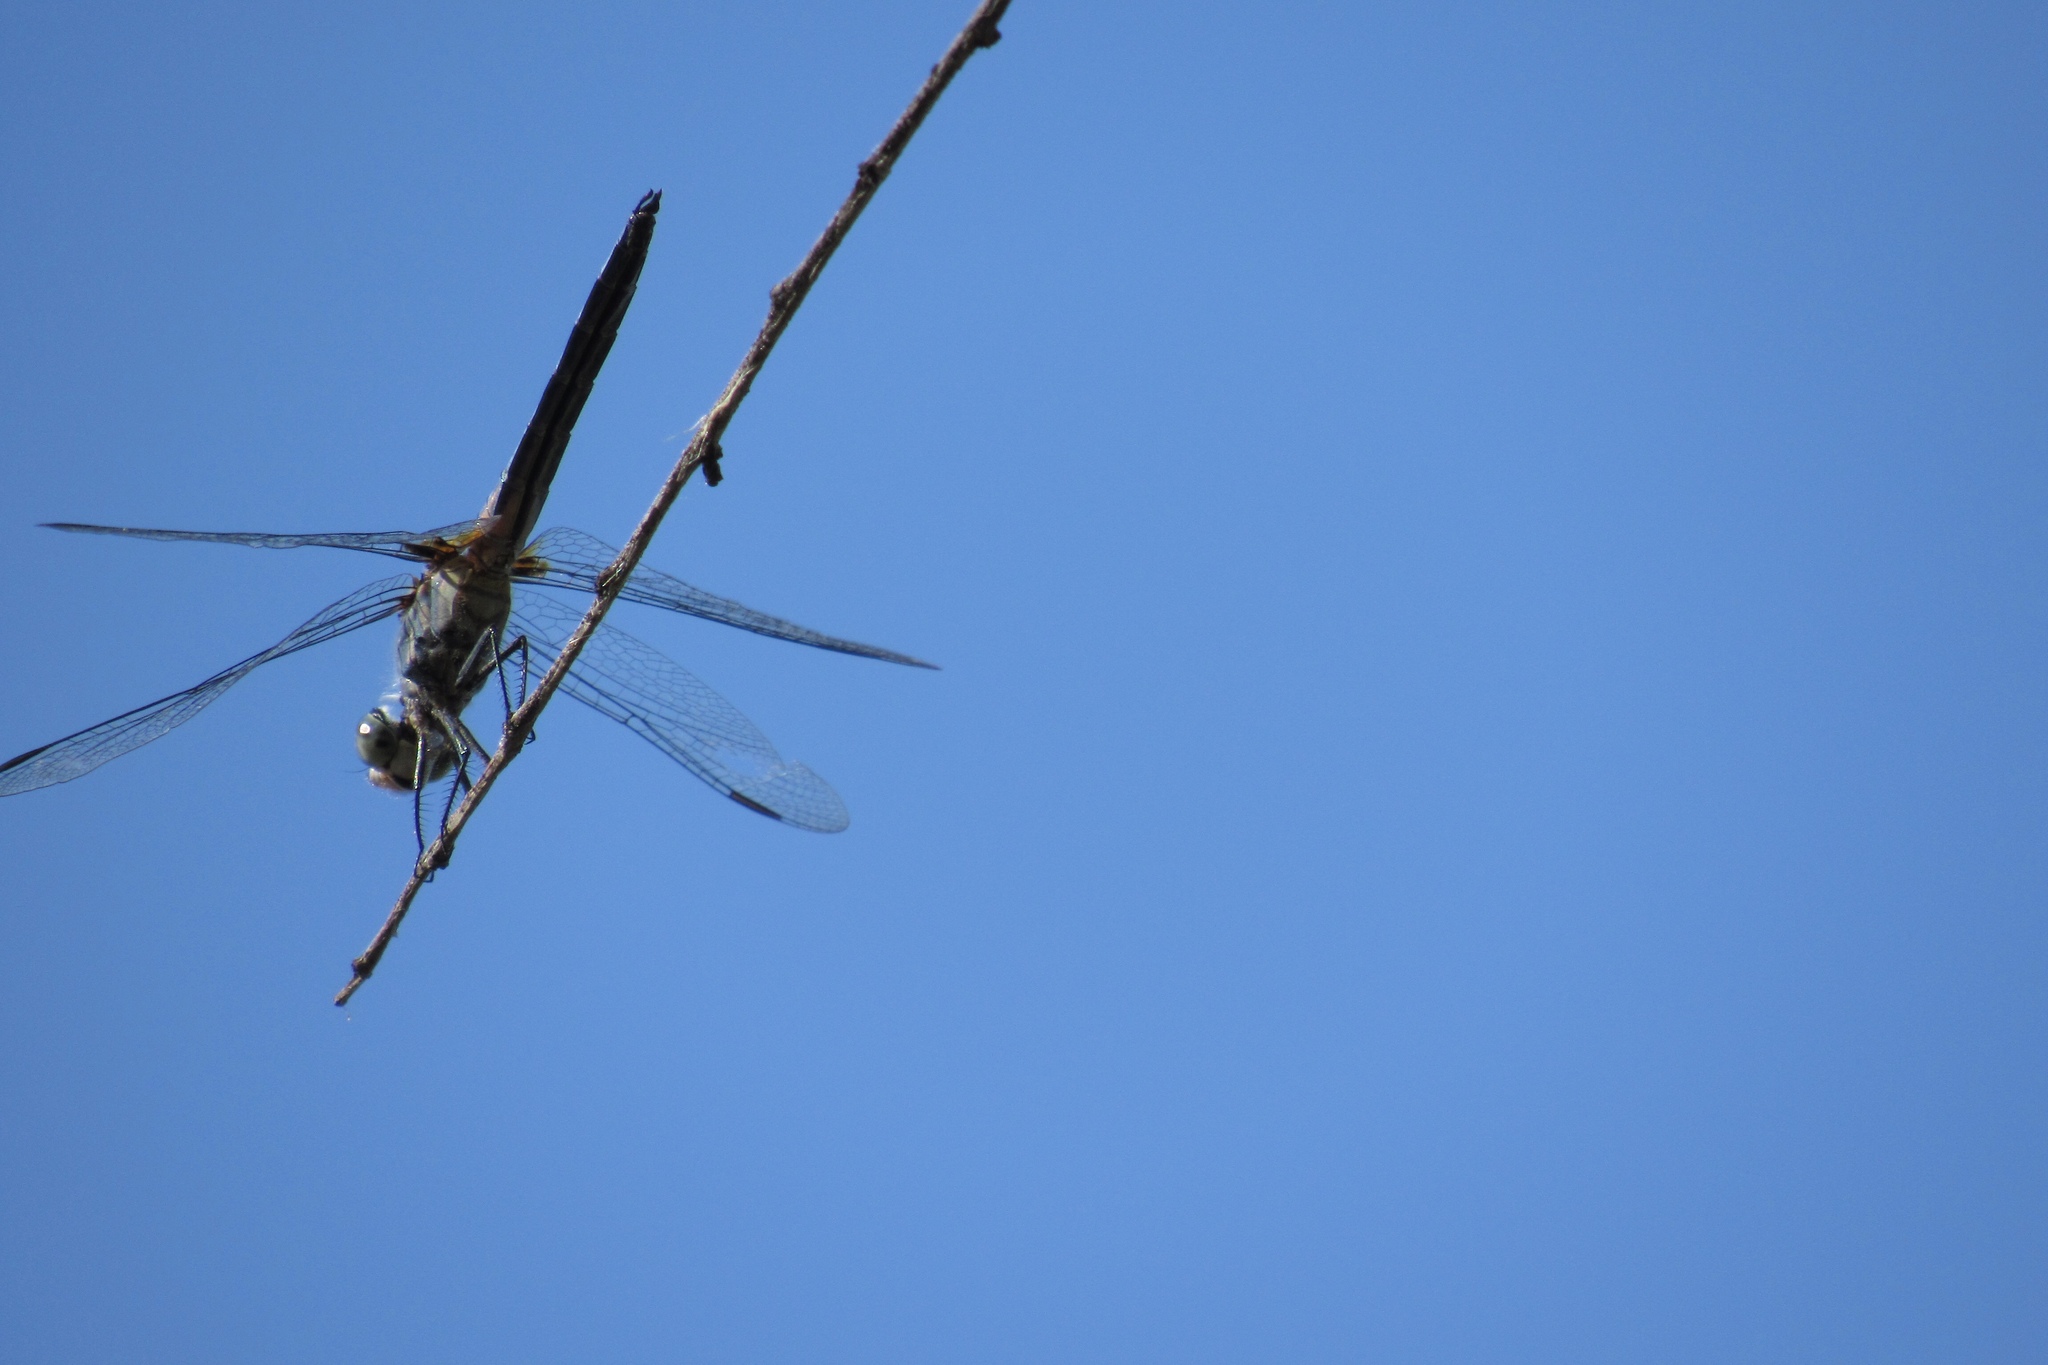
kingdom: Animalia
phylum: Arthropoda
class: Insecta
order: Odonata
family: Libellulidae
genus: Pachydiplax
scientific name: Pachydiplax longipennis
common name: Blue dasher
